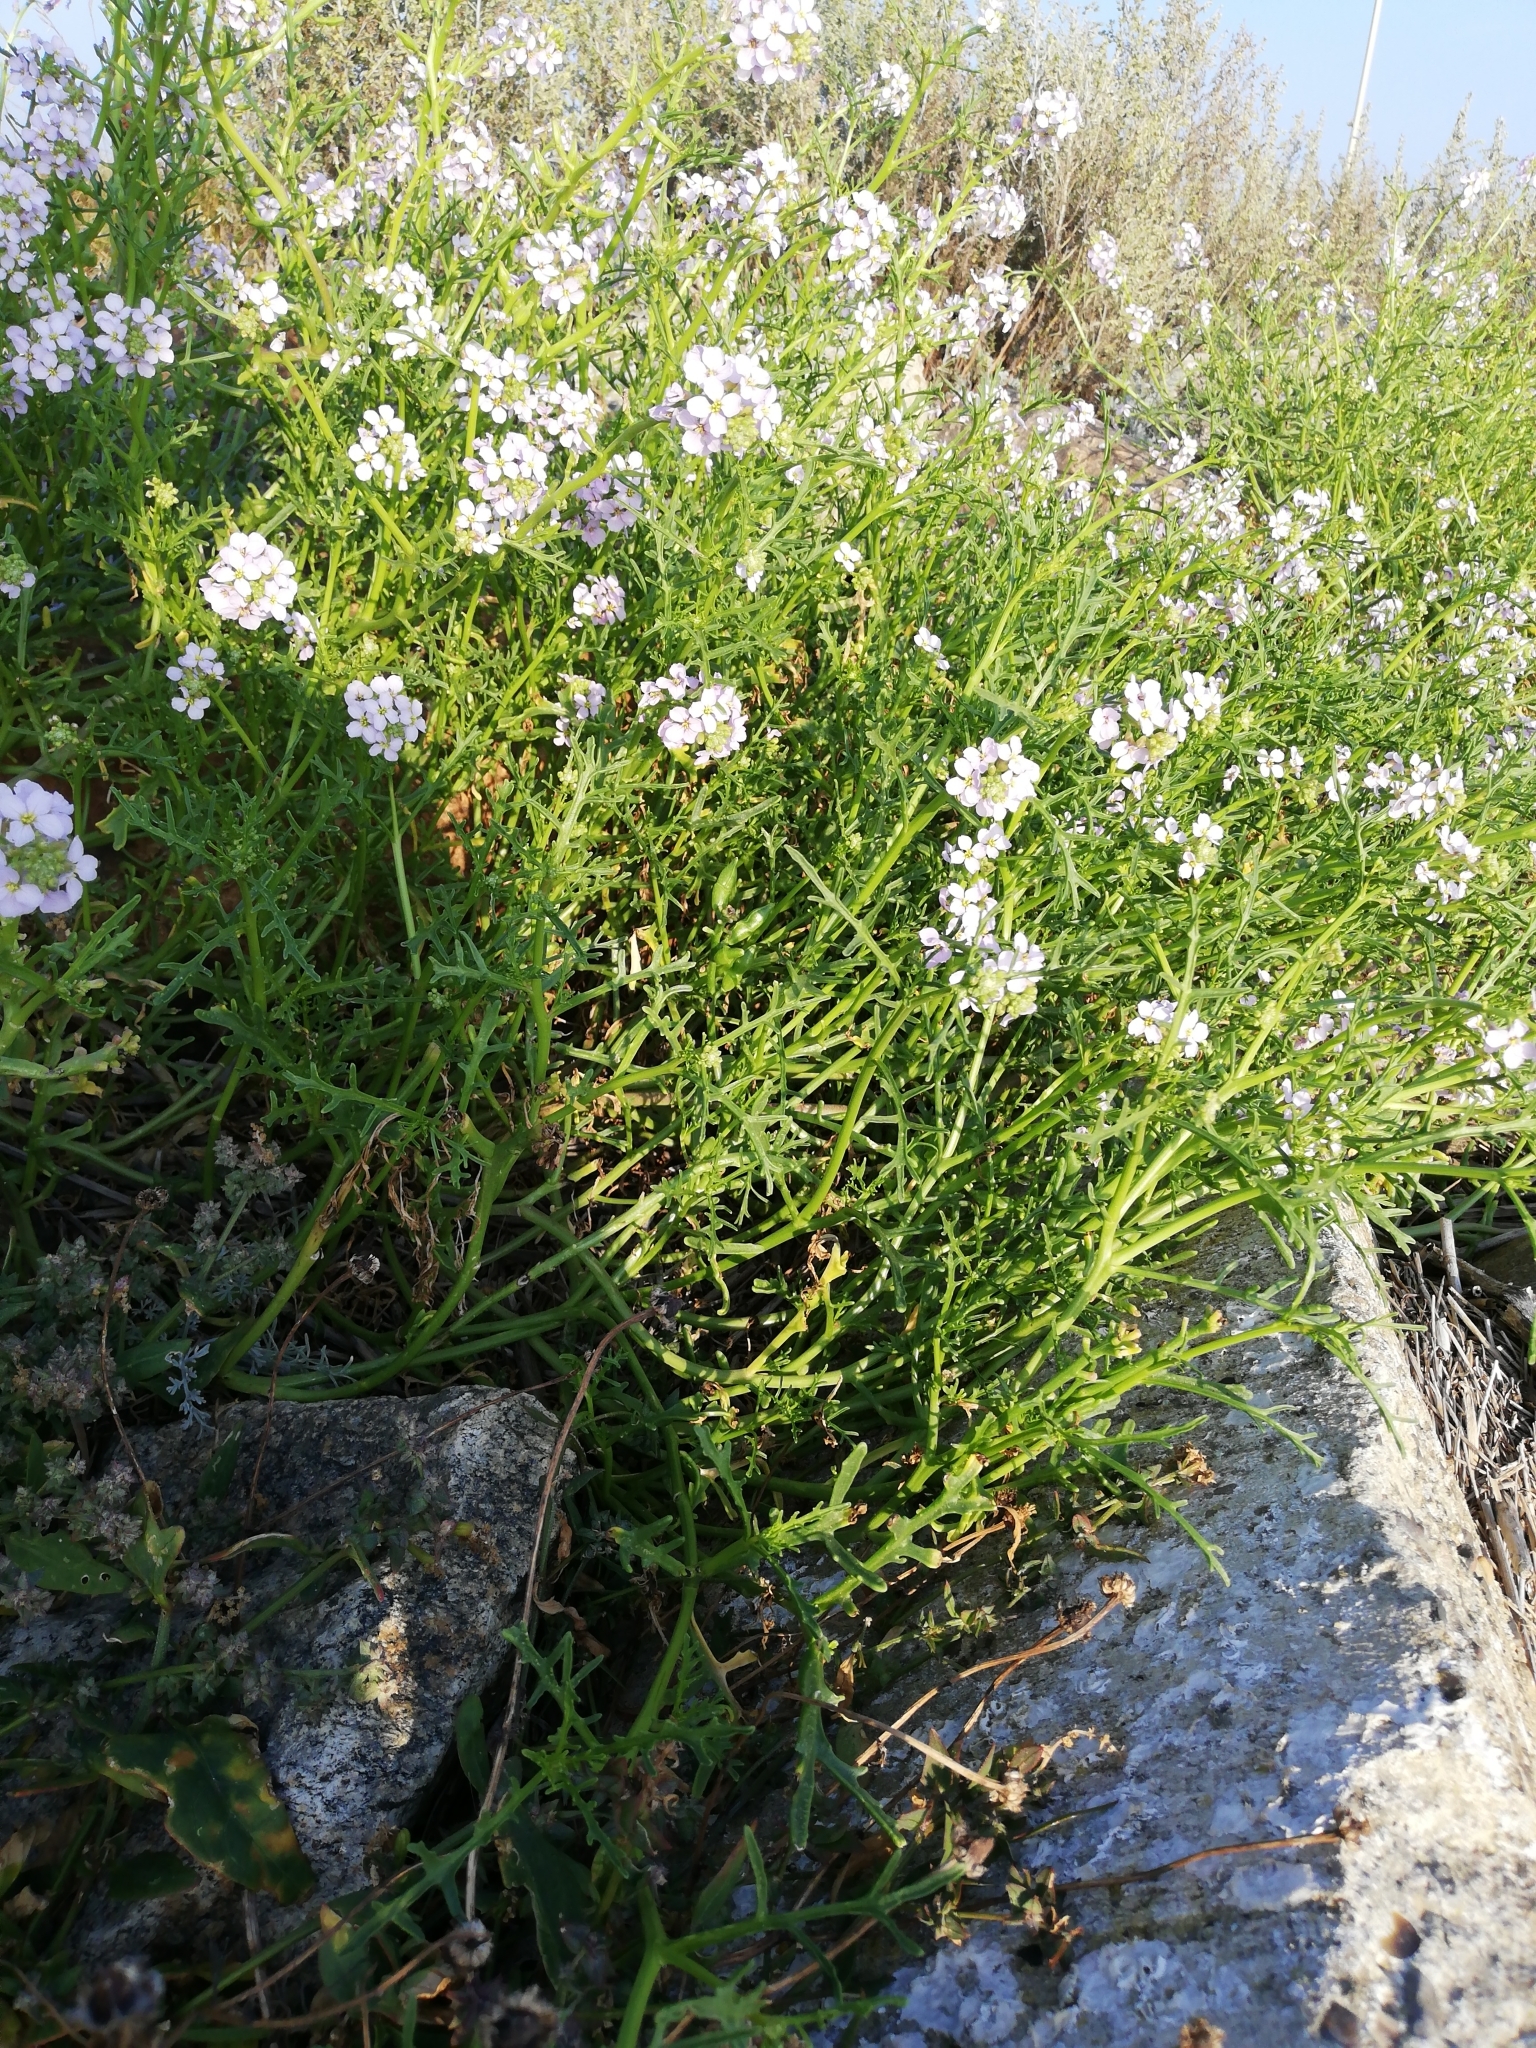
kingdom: Plantae
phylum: Tracheophyta
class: Magnoliopsida
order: Brassicales
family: Brassicaceae
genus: Cakile
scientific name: Cakile maritima
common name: Sea rocket
